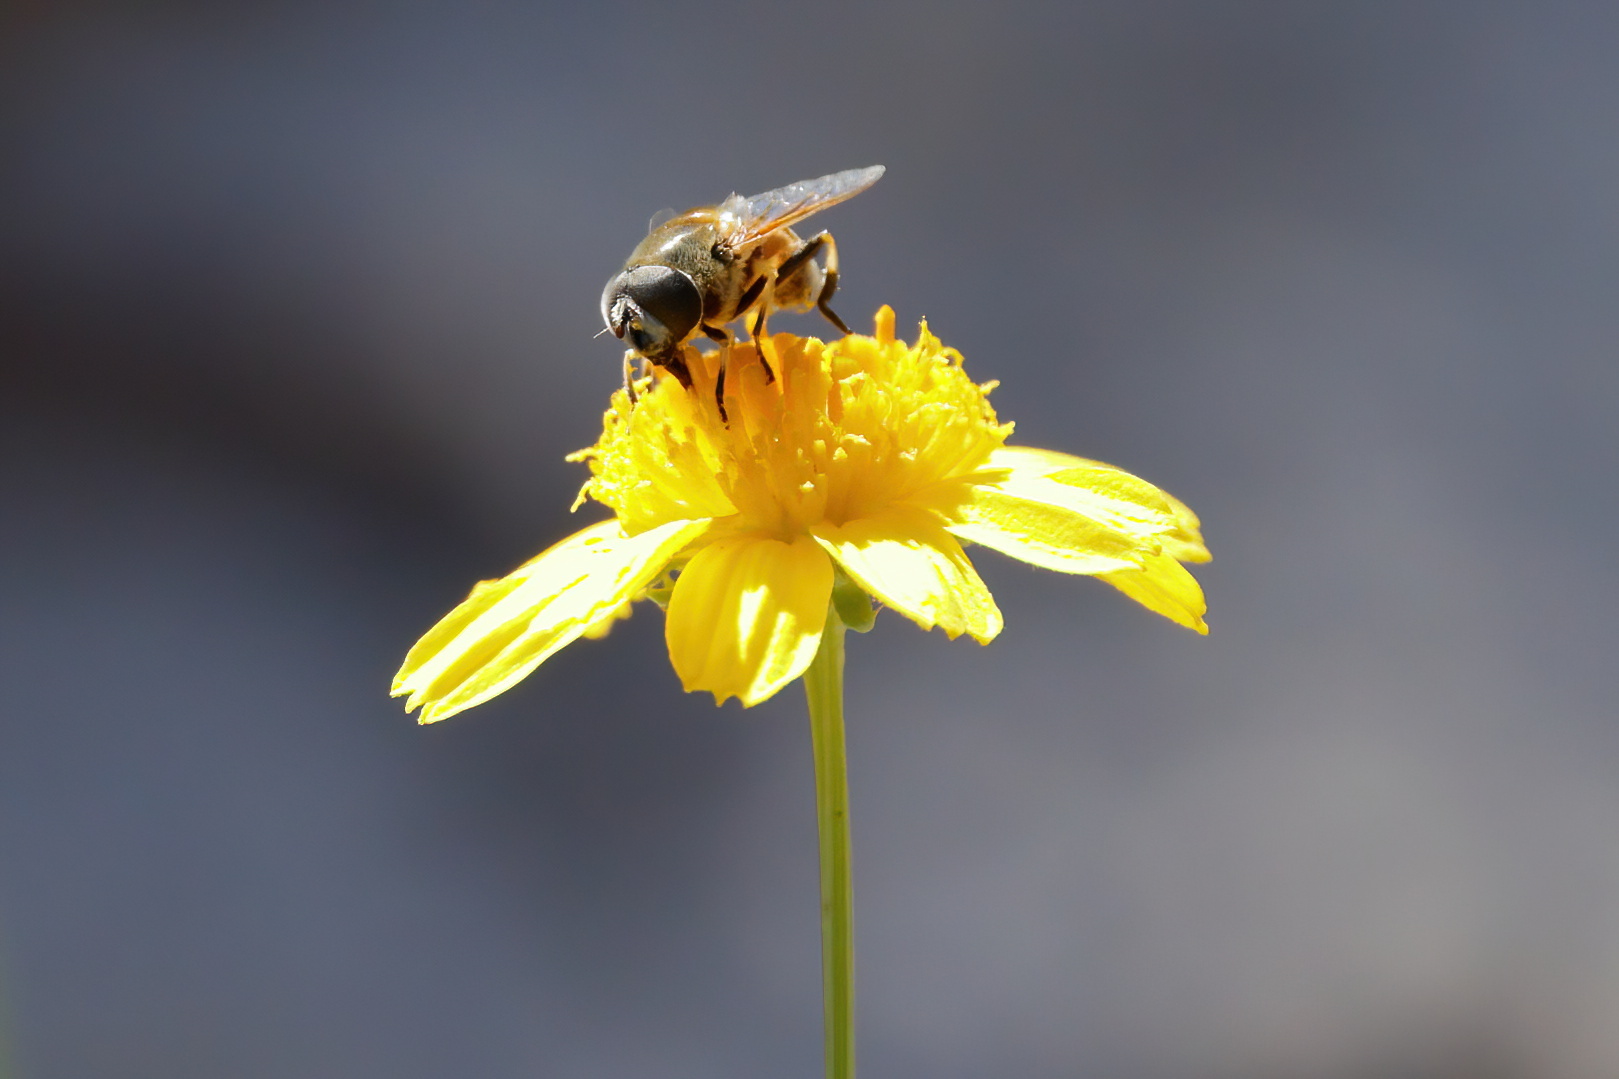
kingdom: Animalia
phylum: Arthropoda
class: Insecta
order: Diptera
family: Syrphidae
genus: Eristalis
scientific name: Eristalis stipator
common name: Yellow-shouldered drone fly
